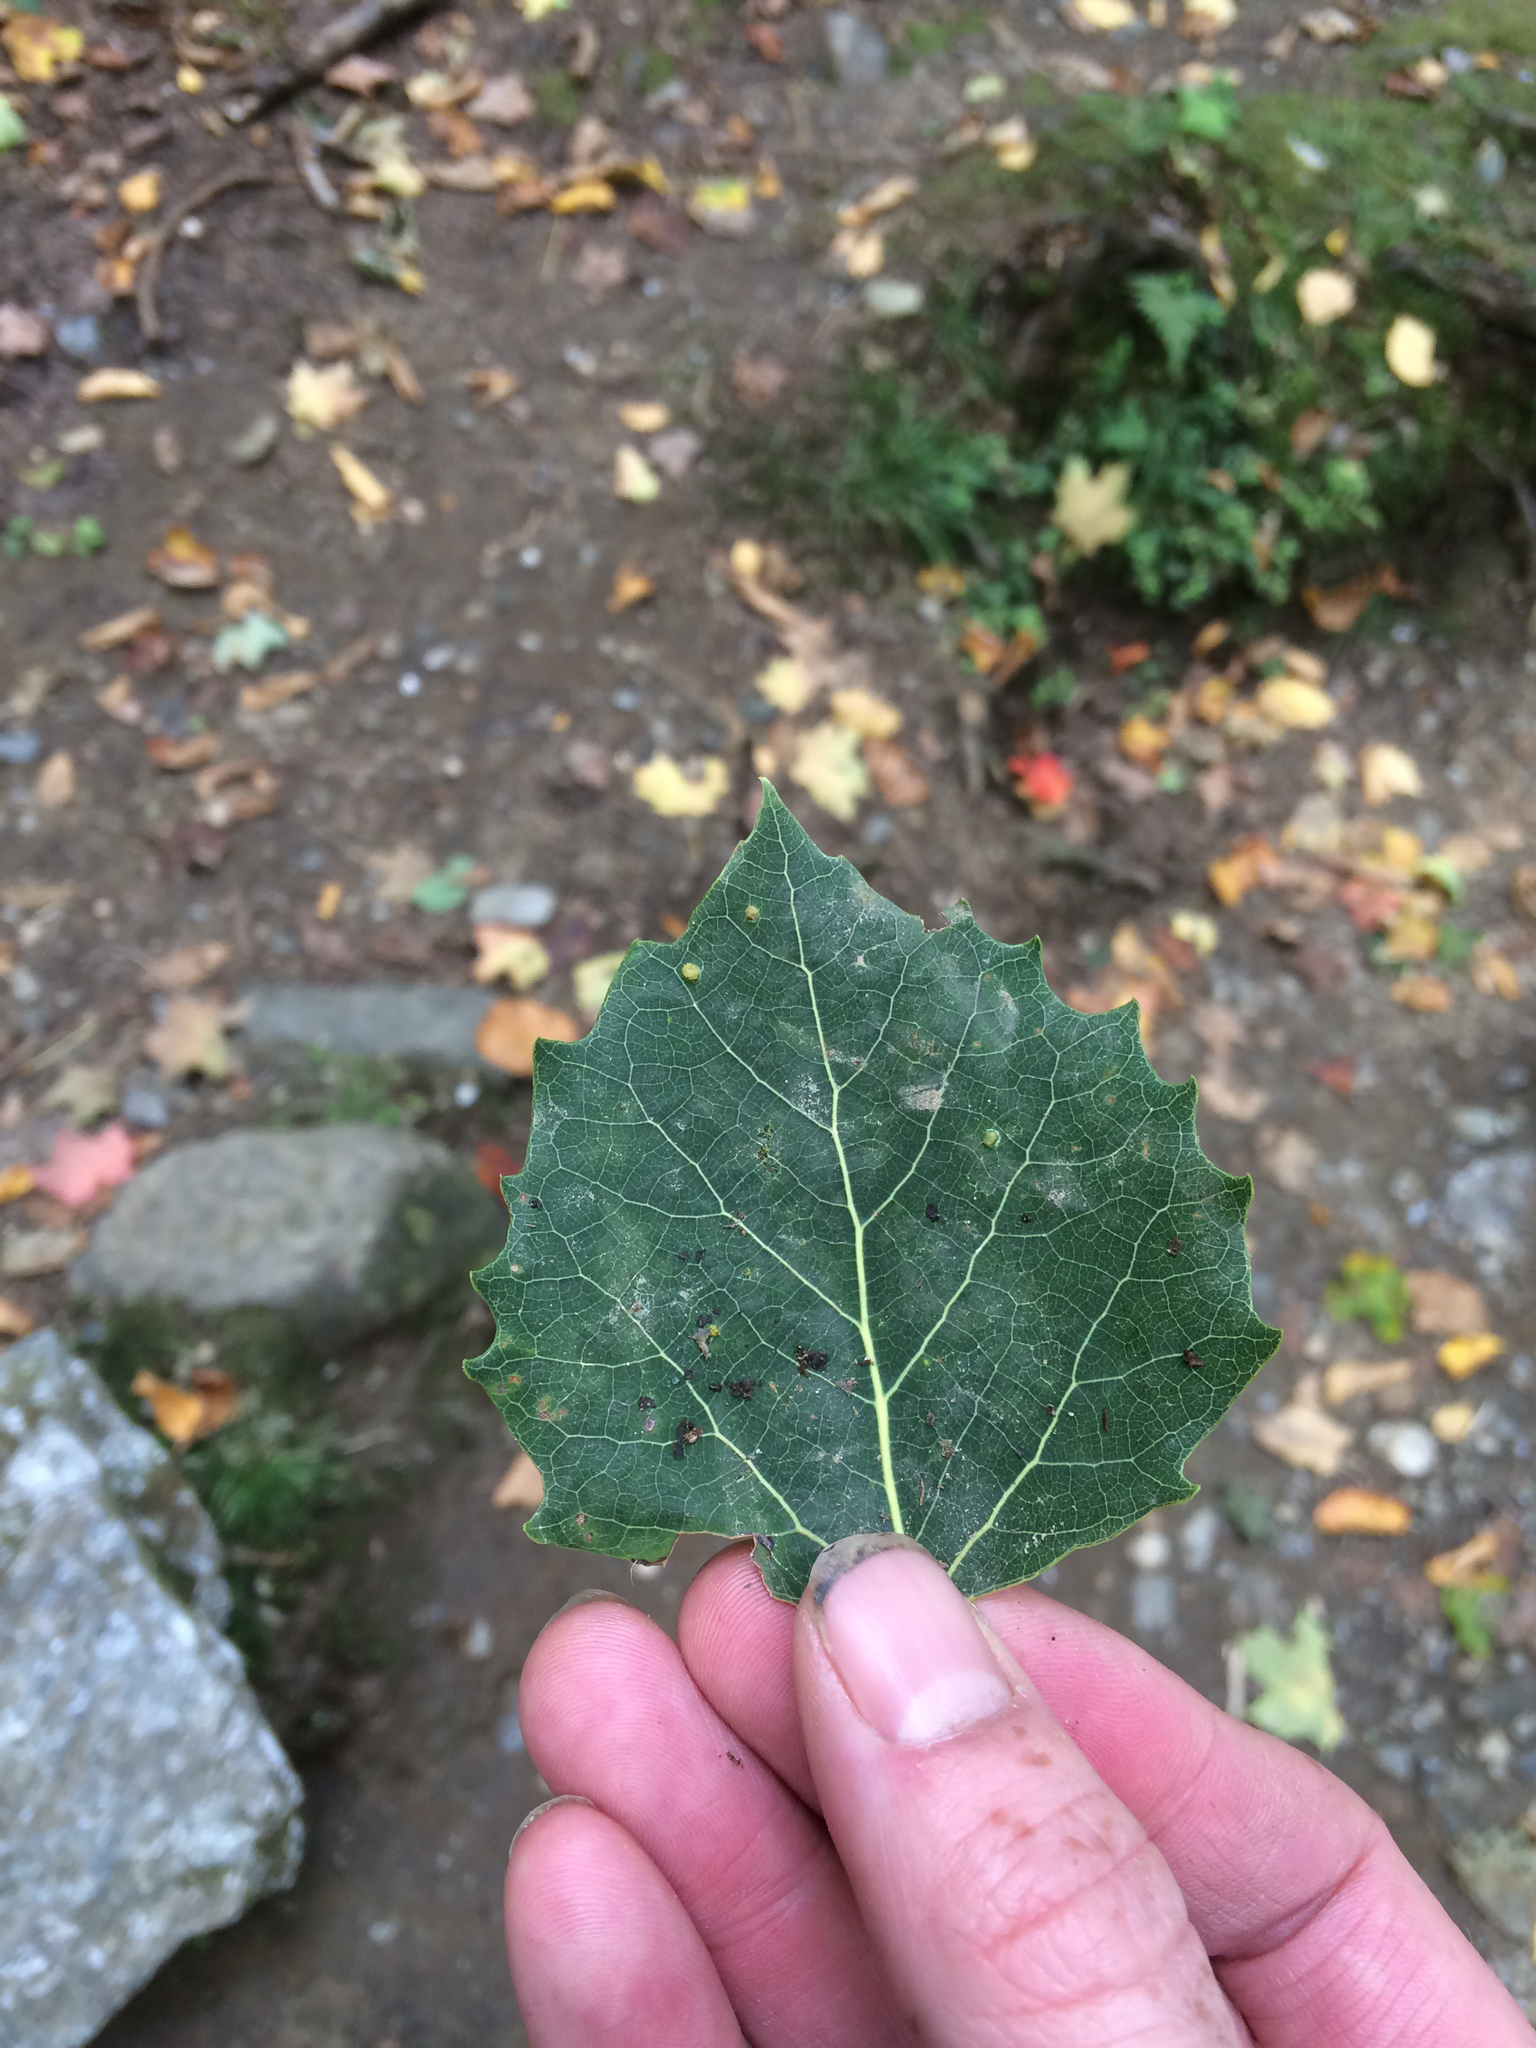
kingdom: Plantae
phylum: Tracheophyta
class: Magnoliopsida
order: Malpighiales
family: Salicaceae
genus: Populus
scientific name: Populus grandidentata
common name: Bigtooth aspen
